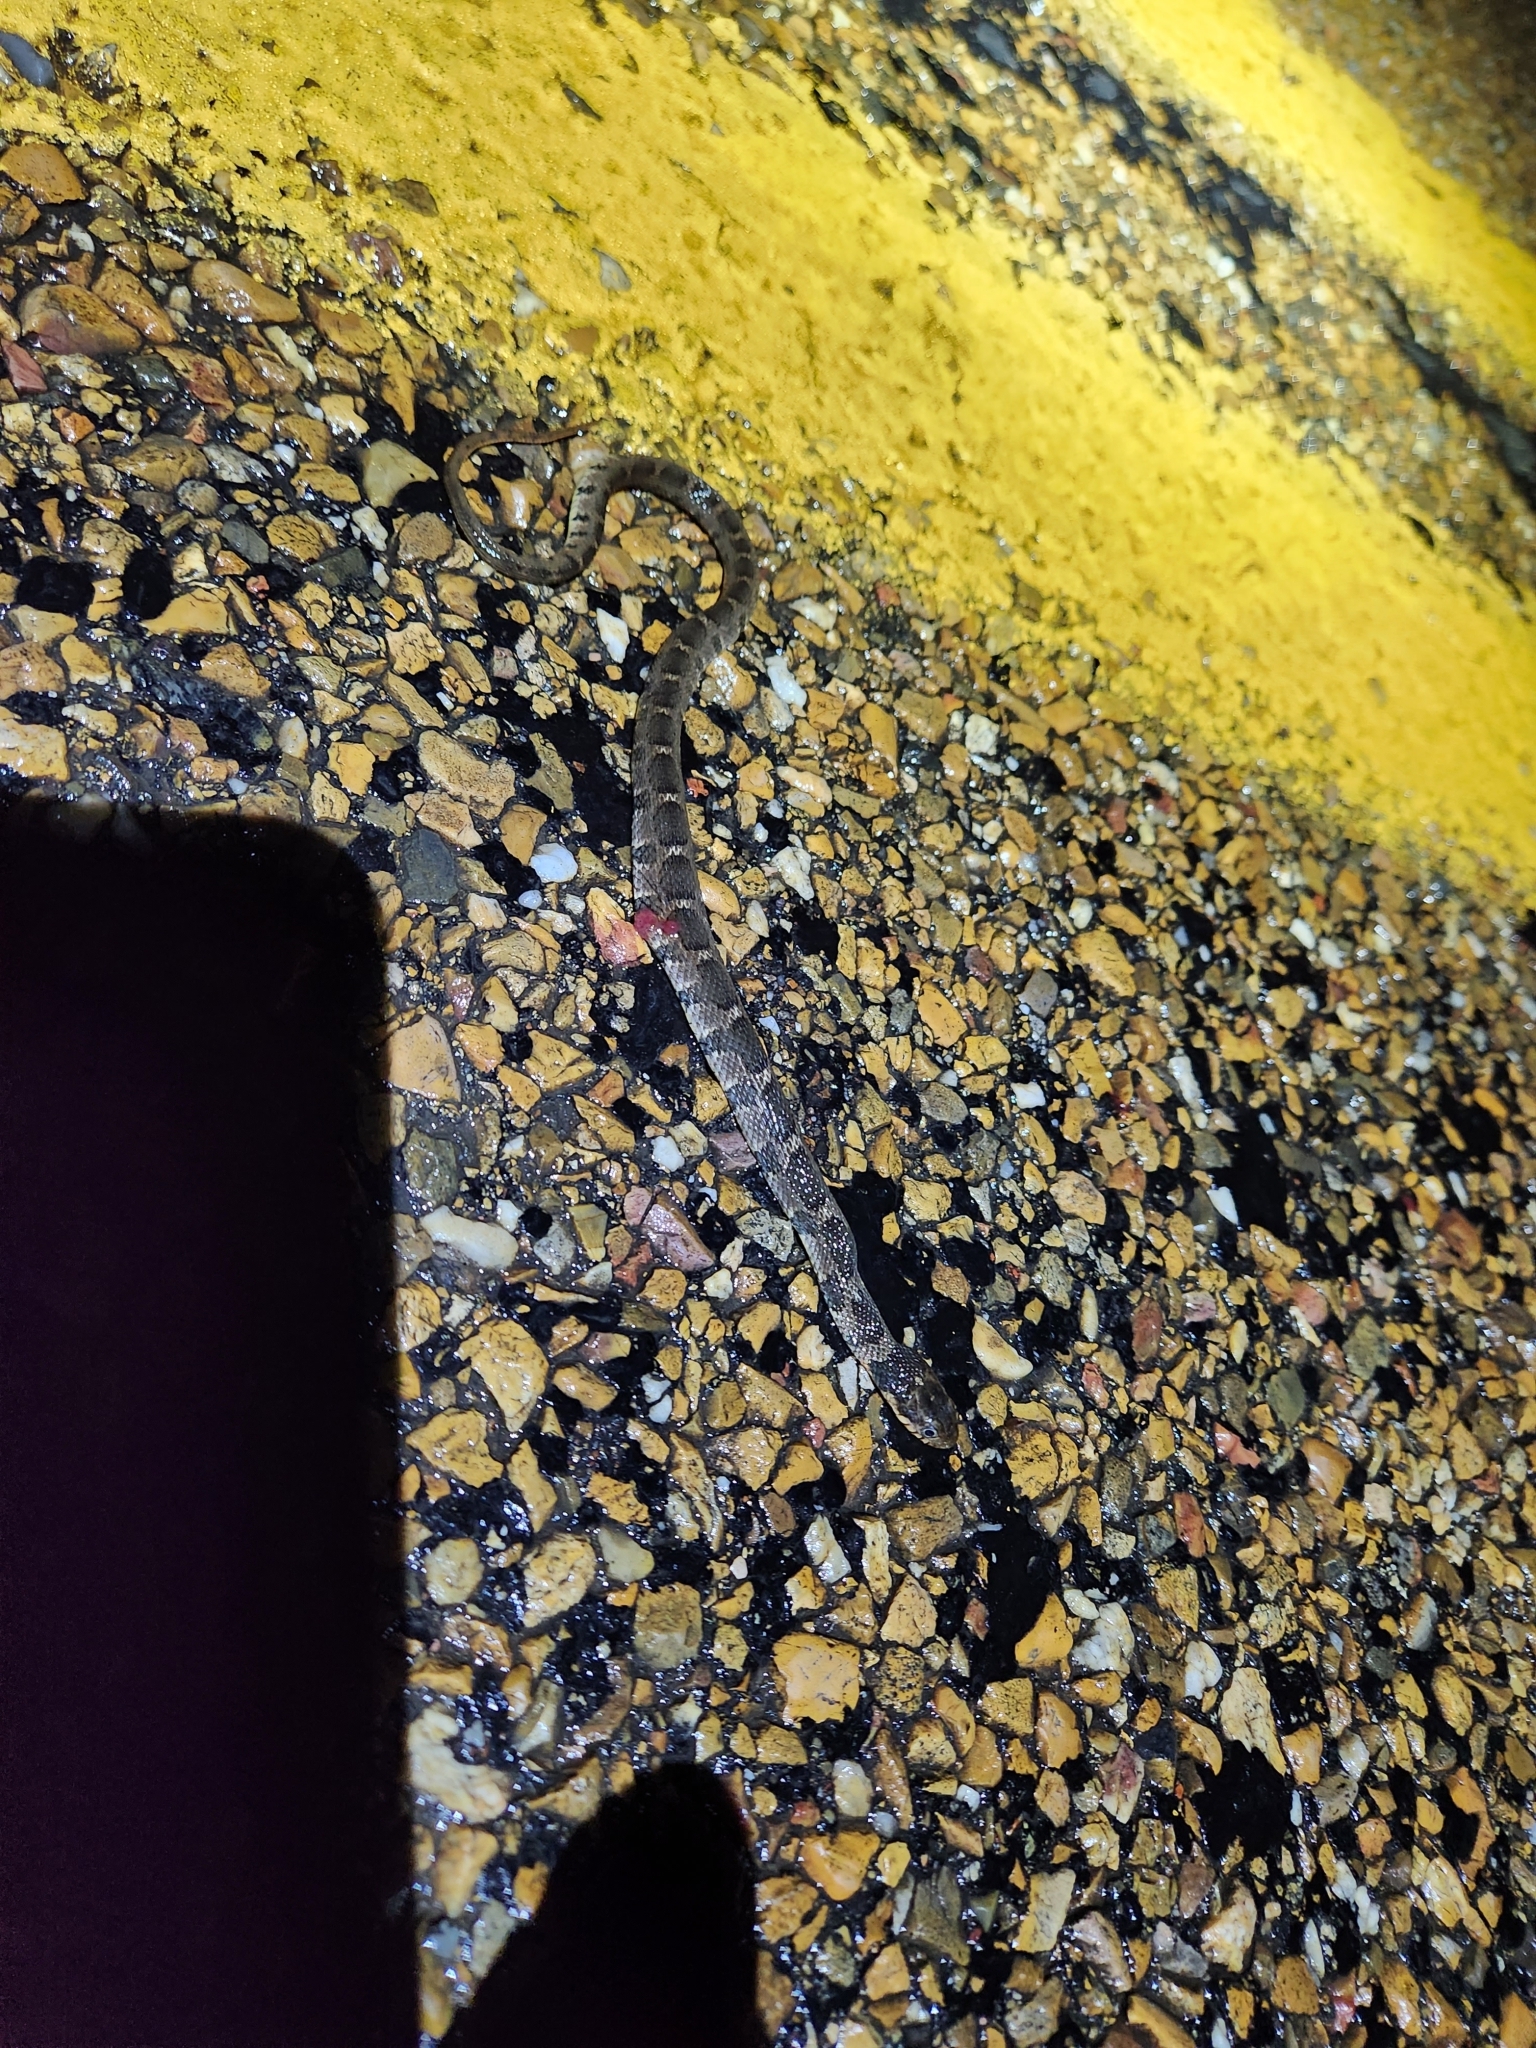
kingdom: Animalia
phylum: Chordata
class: Squamata
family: Colubridae
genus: Nerodia
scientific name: Nerodia erythrogaster
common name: Plainbelly water snake
